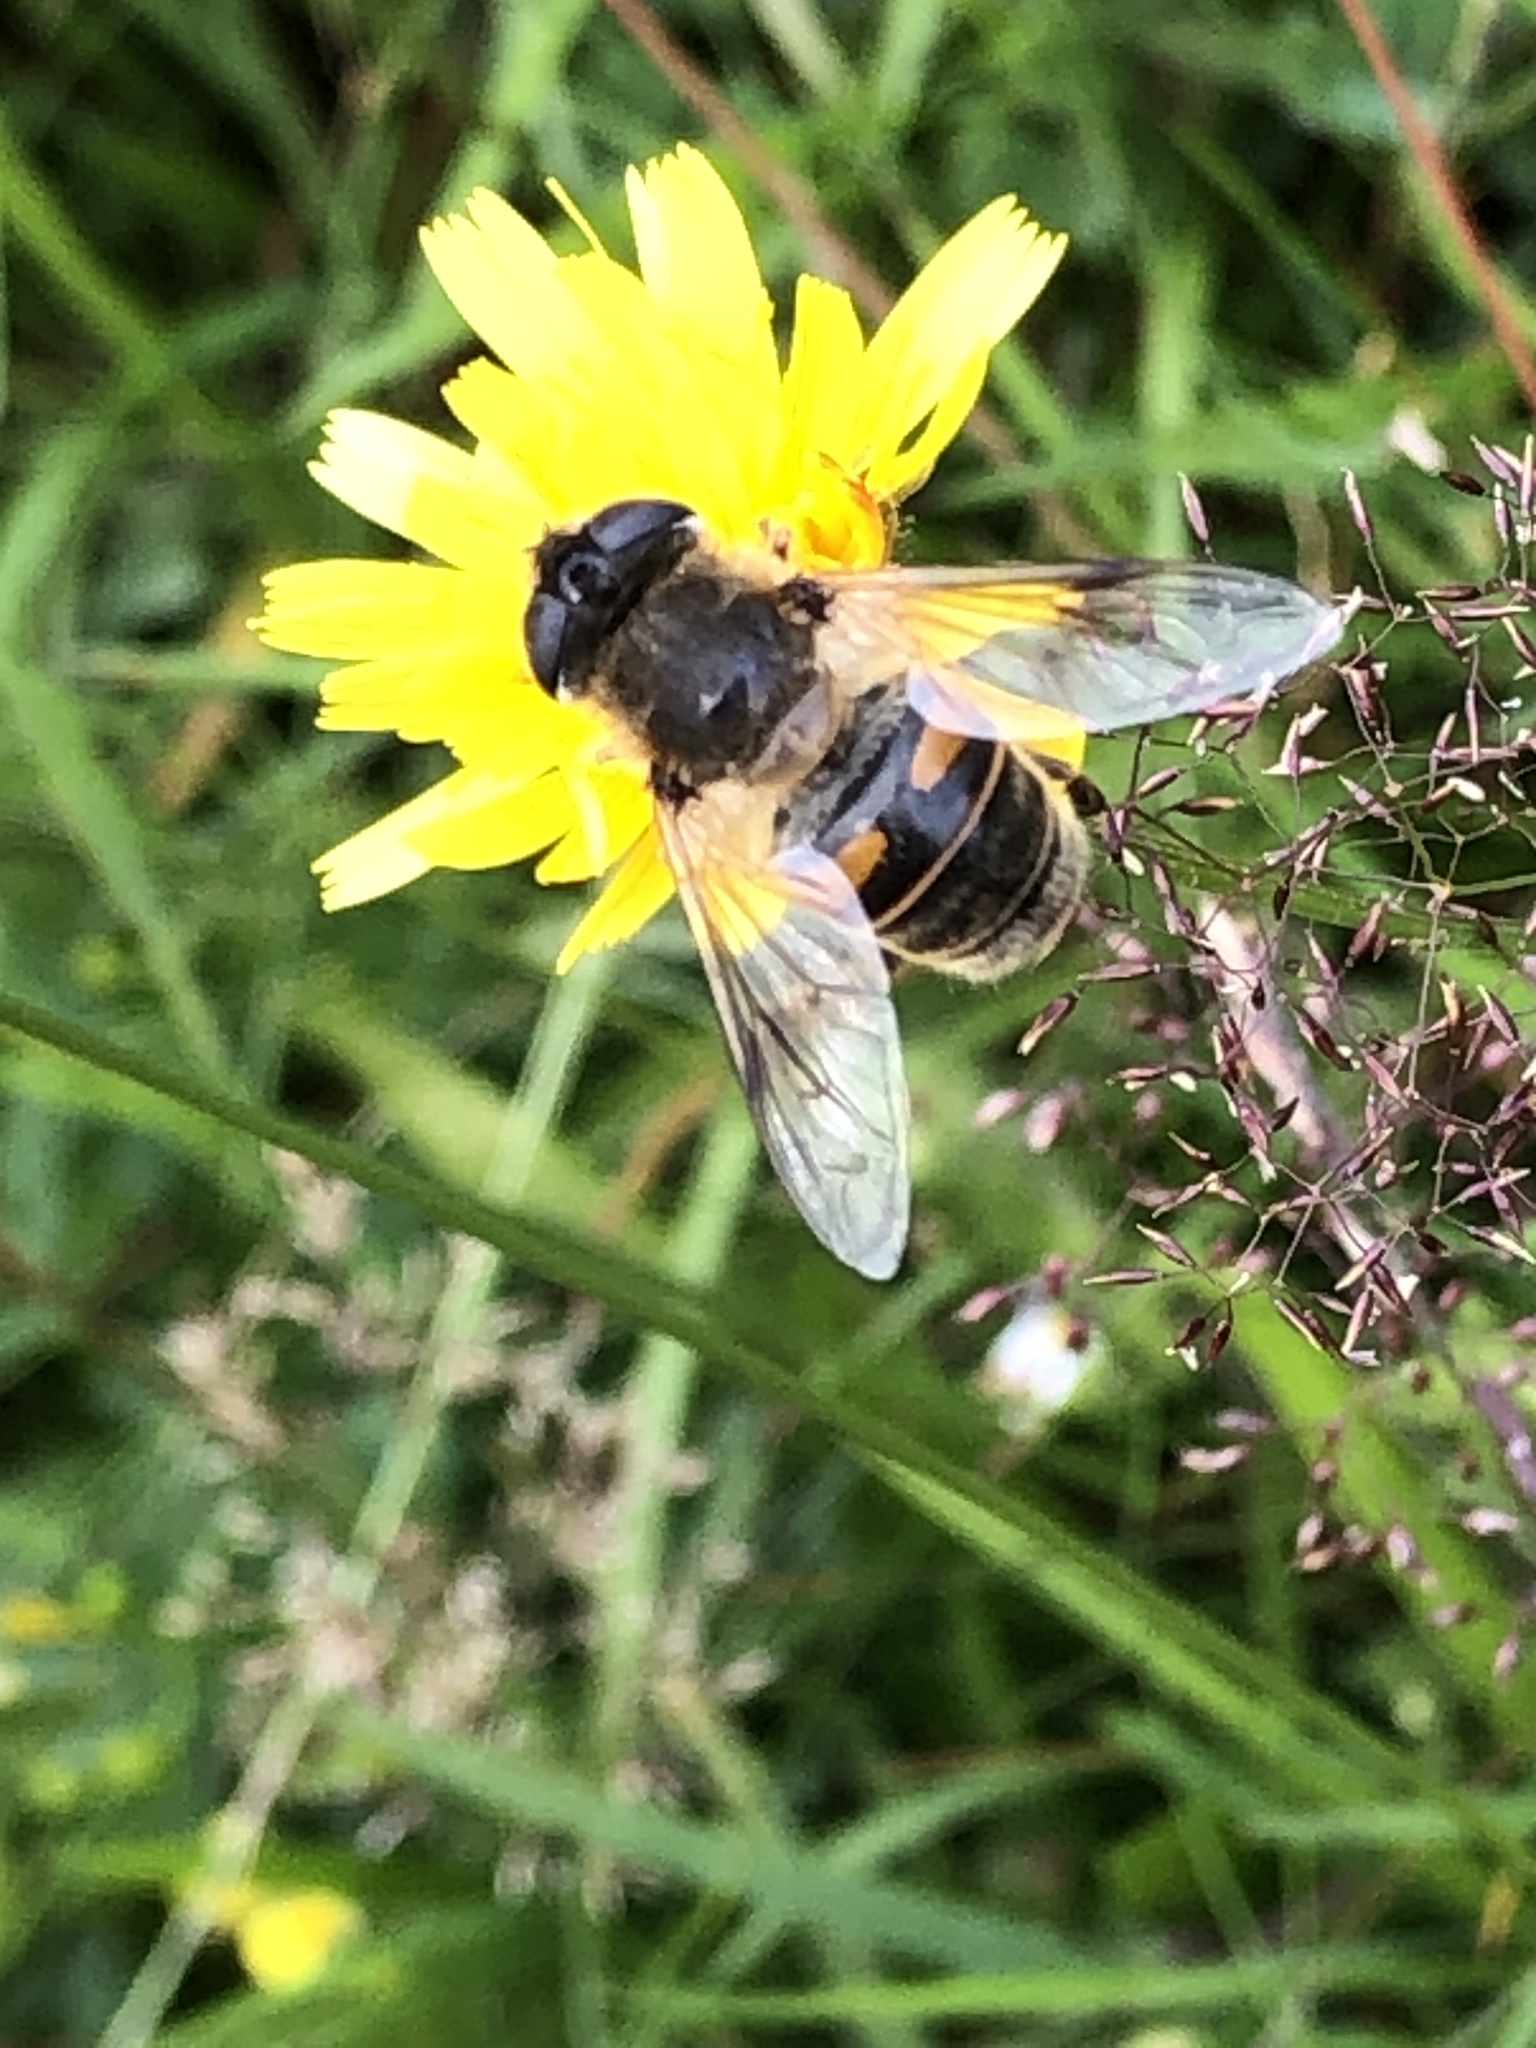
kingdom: Animalia
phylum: Arthropoda
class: Insecta
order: Diptera
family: Syrphidae
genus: Eristalis
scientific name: Eristalis tenax
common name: Drone fly
